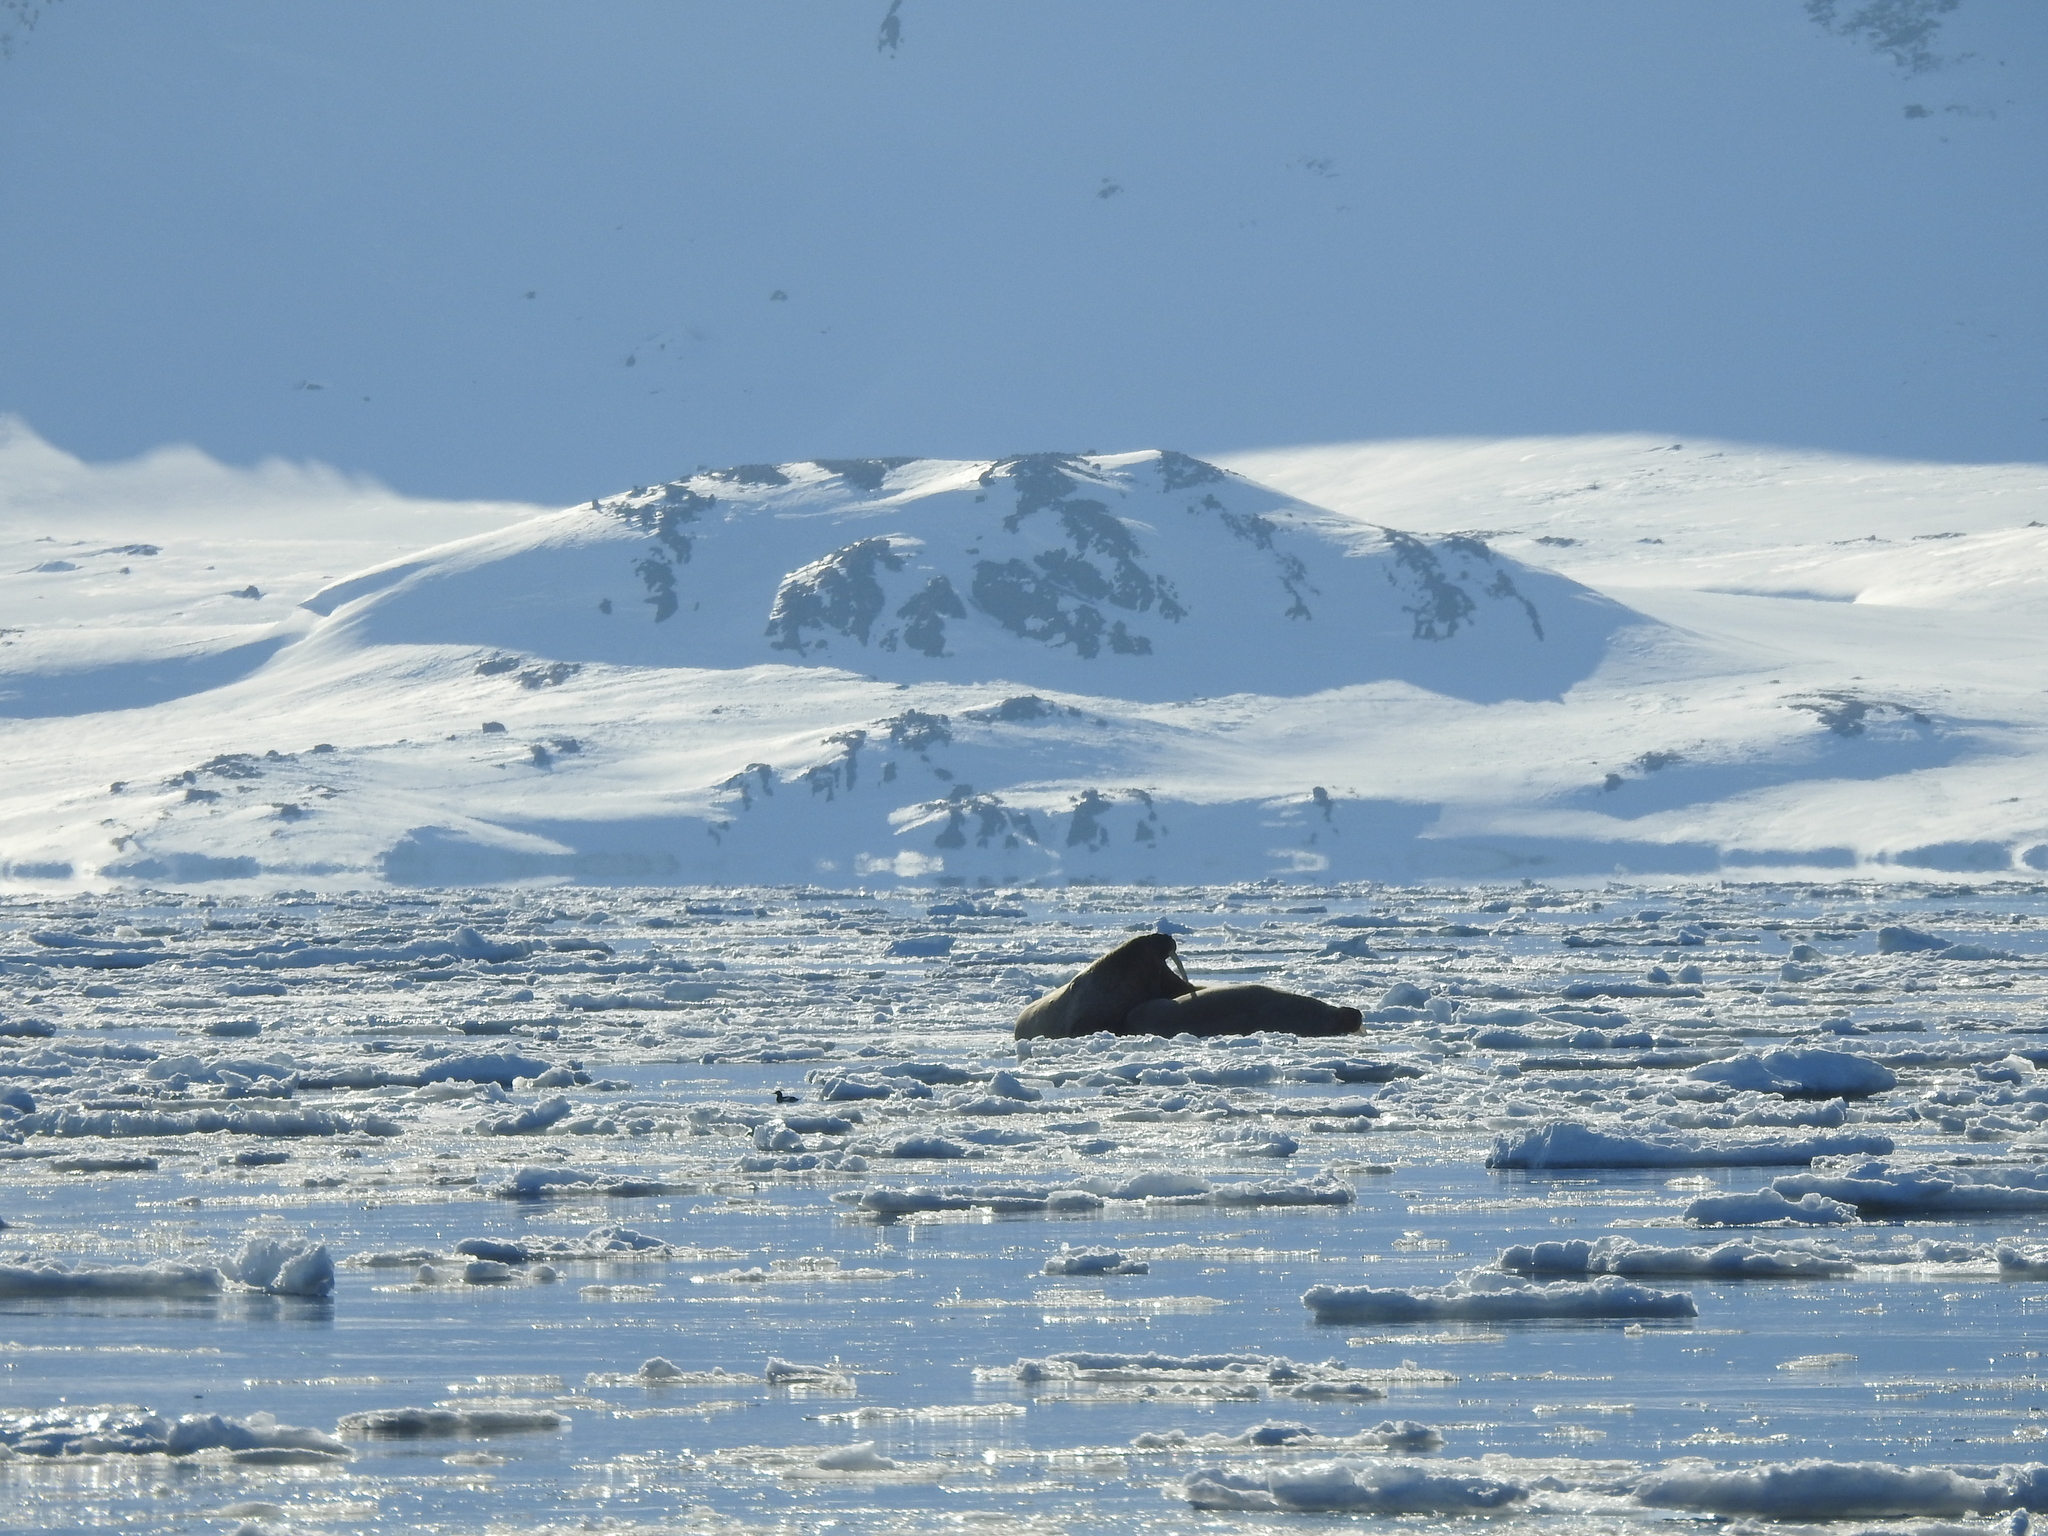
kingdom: Animalia
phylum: Chordata
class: Mammalia
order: Carnivora
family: Odobenidae
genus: Odobenus
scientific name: Odobenus rosmarus
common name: Walrus
